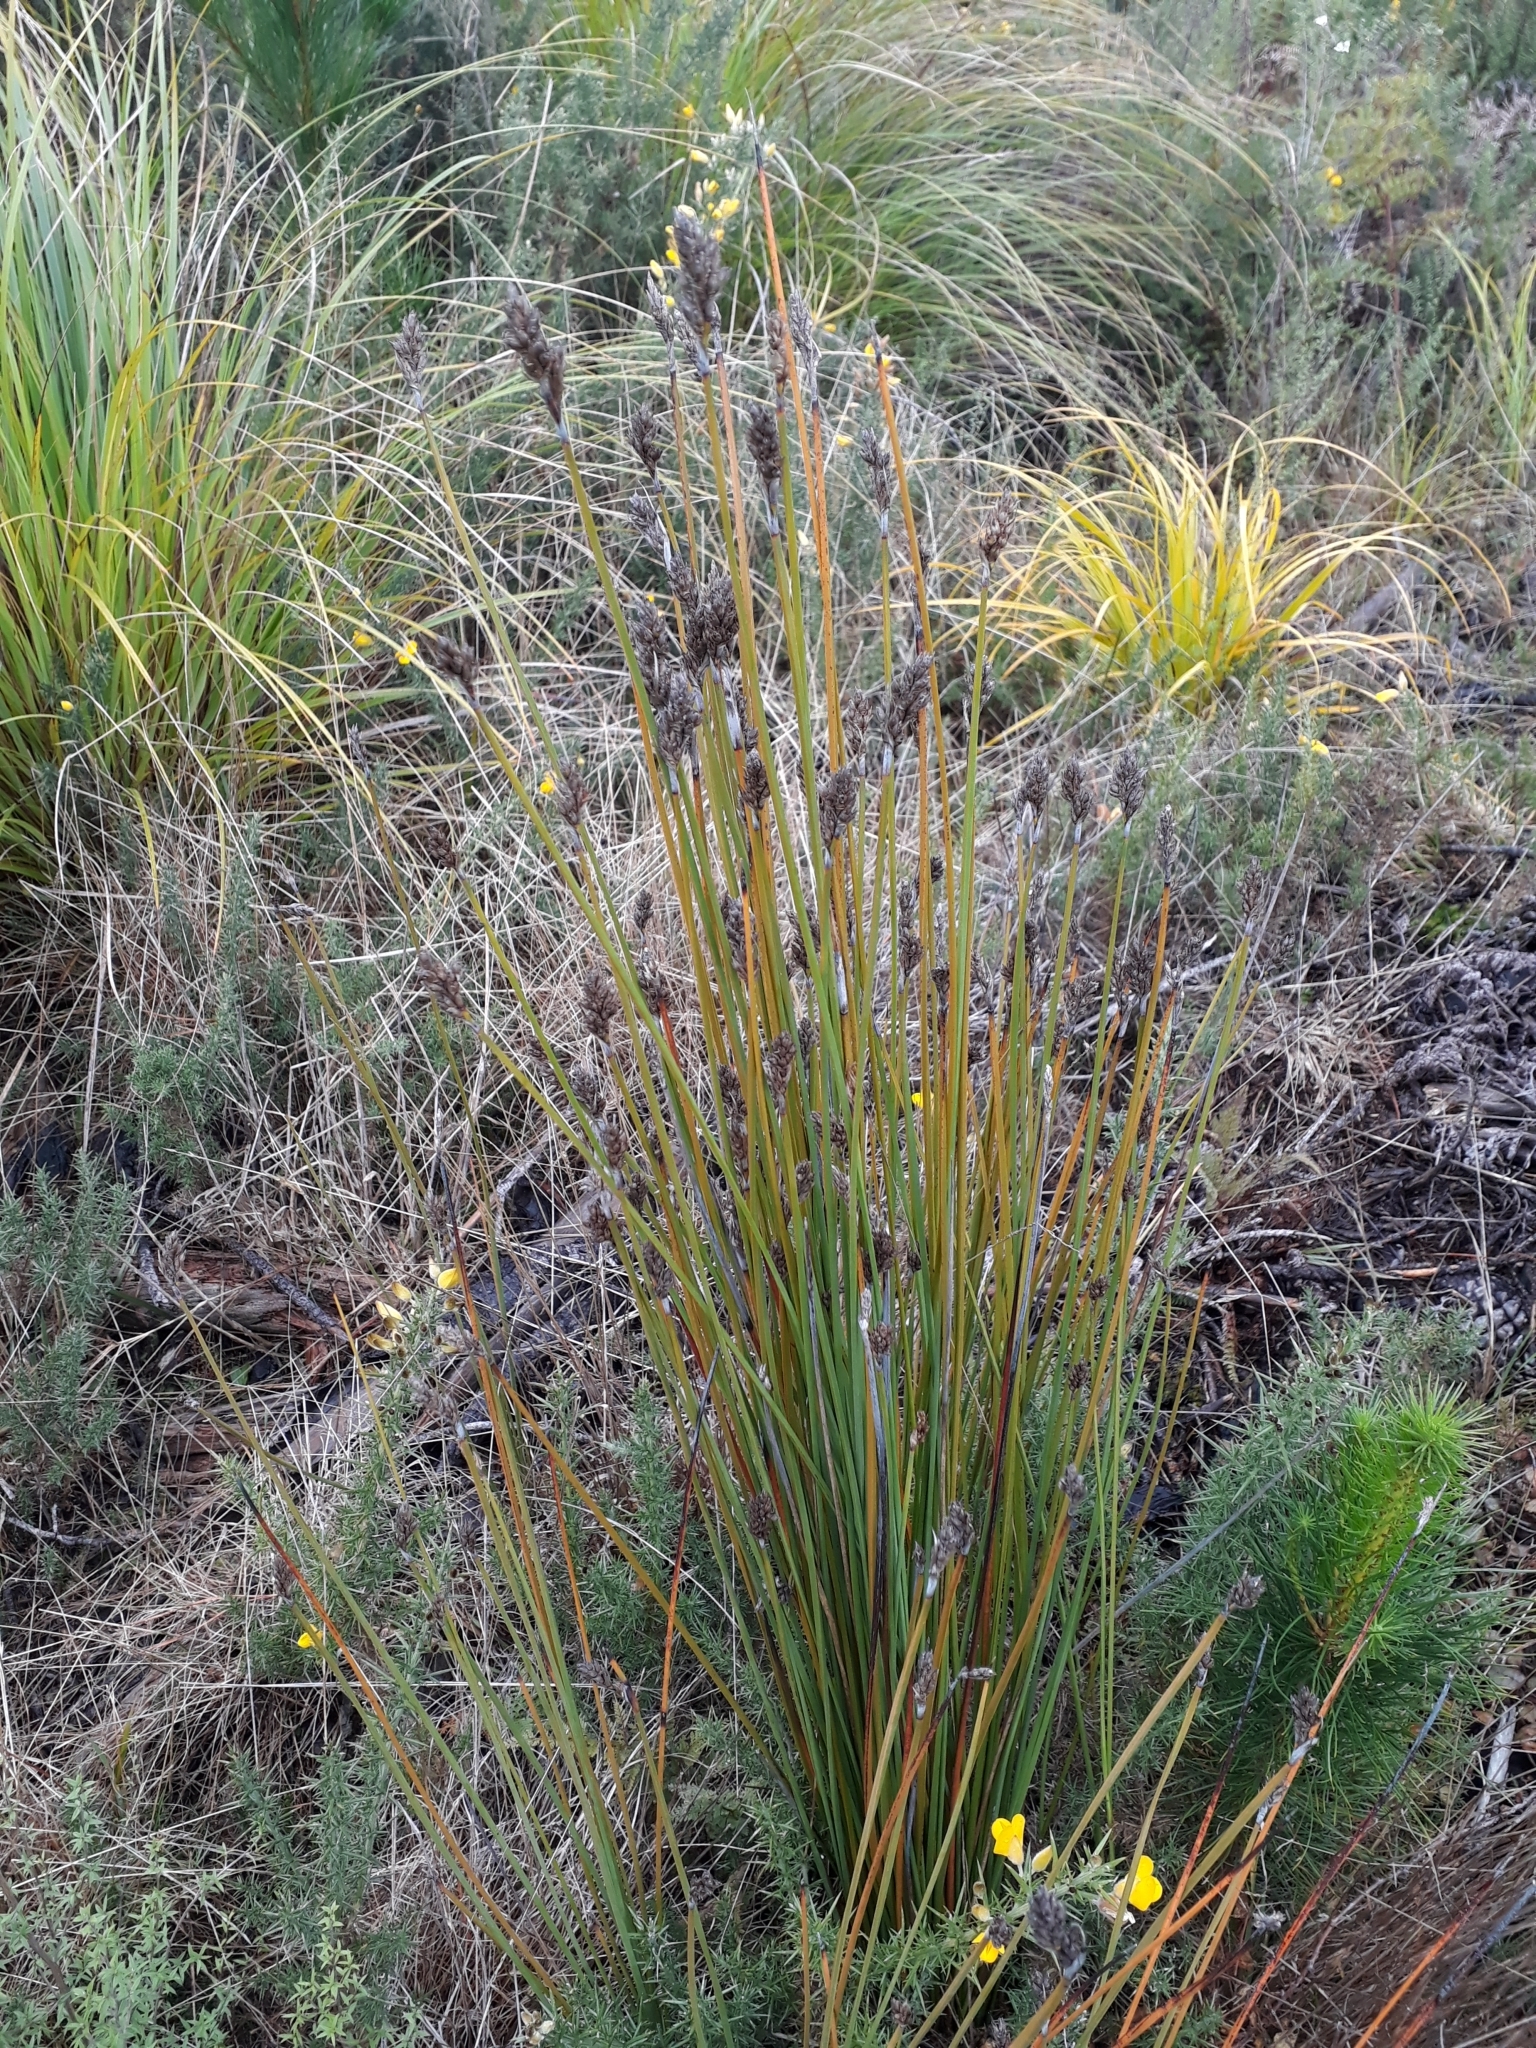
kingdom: Plantae
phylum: Tracheophyta
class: Liliopsida
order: Poales
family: Cyperaceae
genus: Lepidosperma
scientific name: Lepidosperma australe
